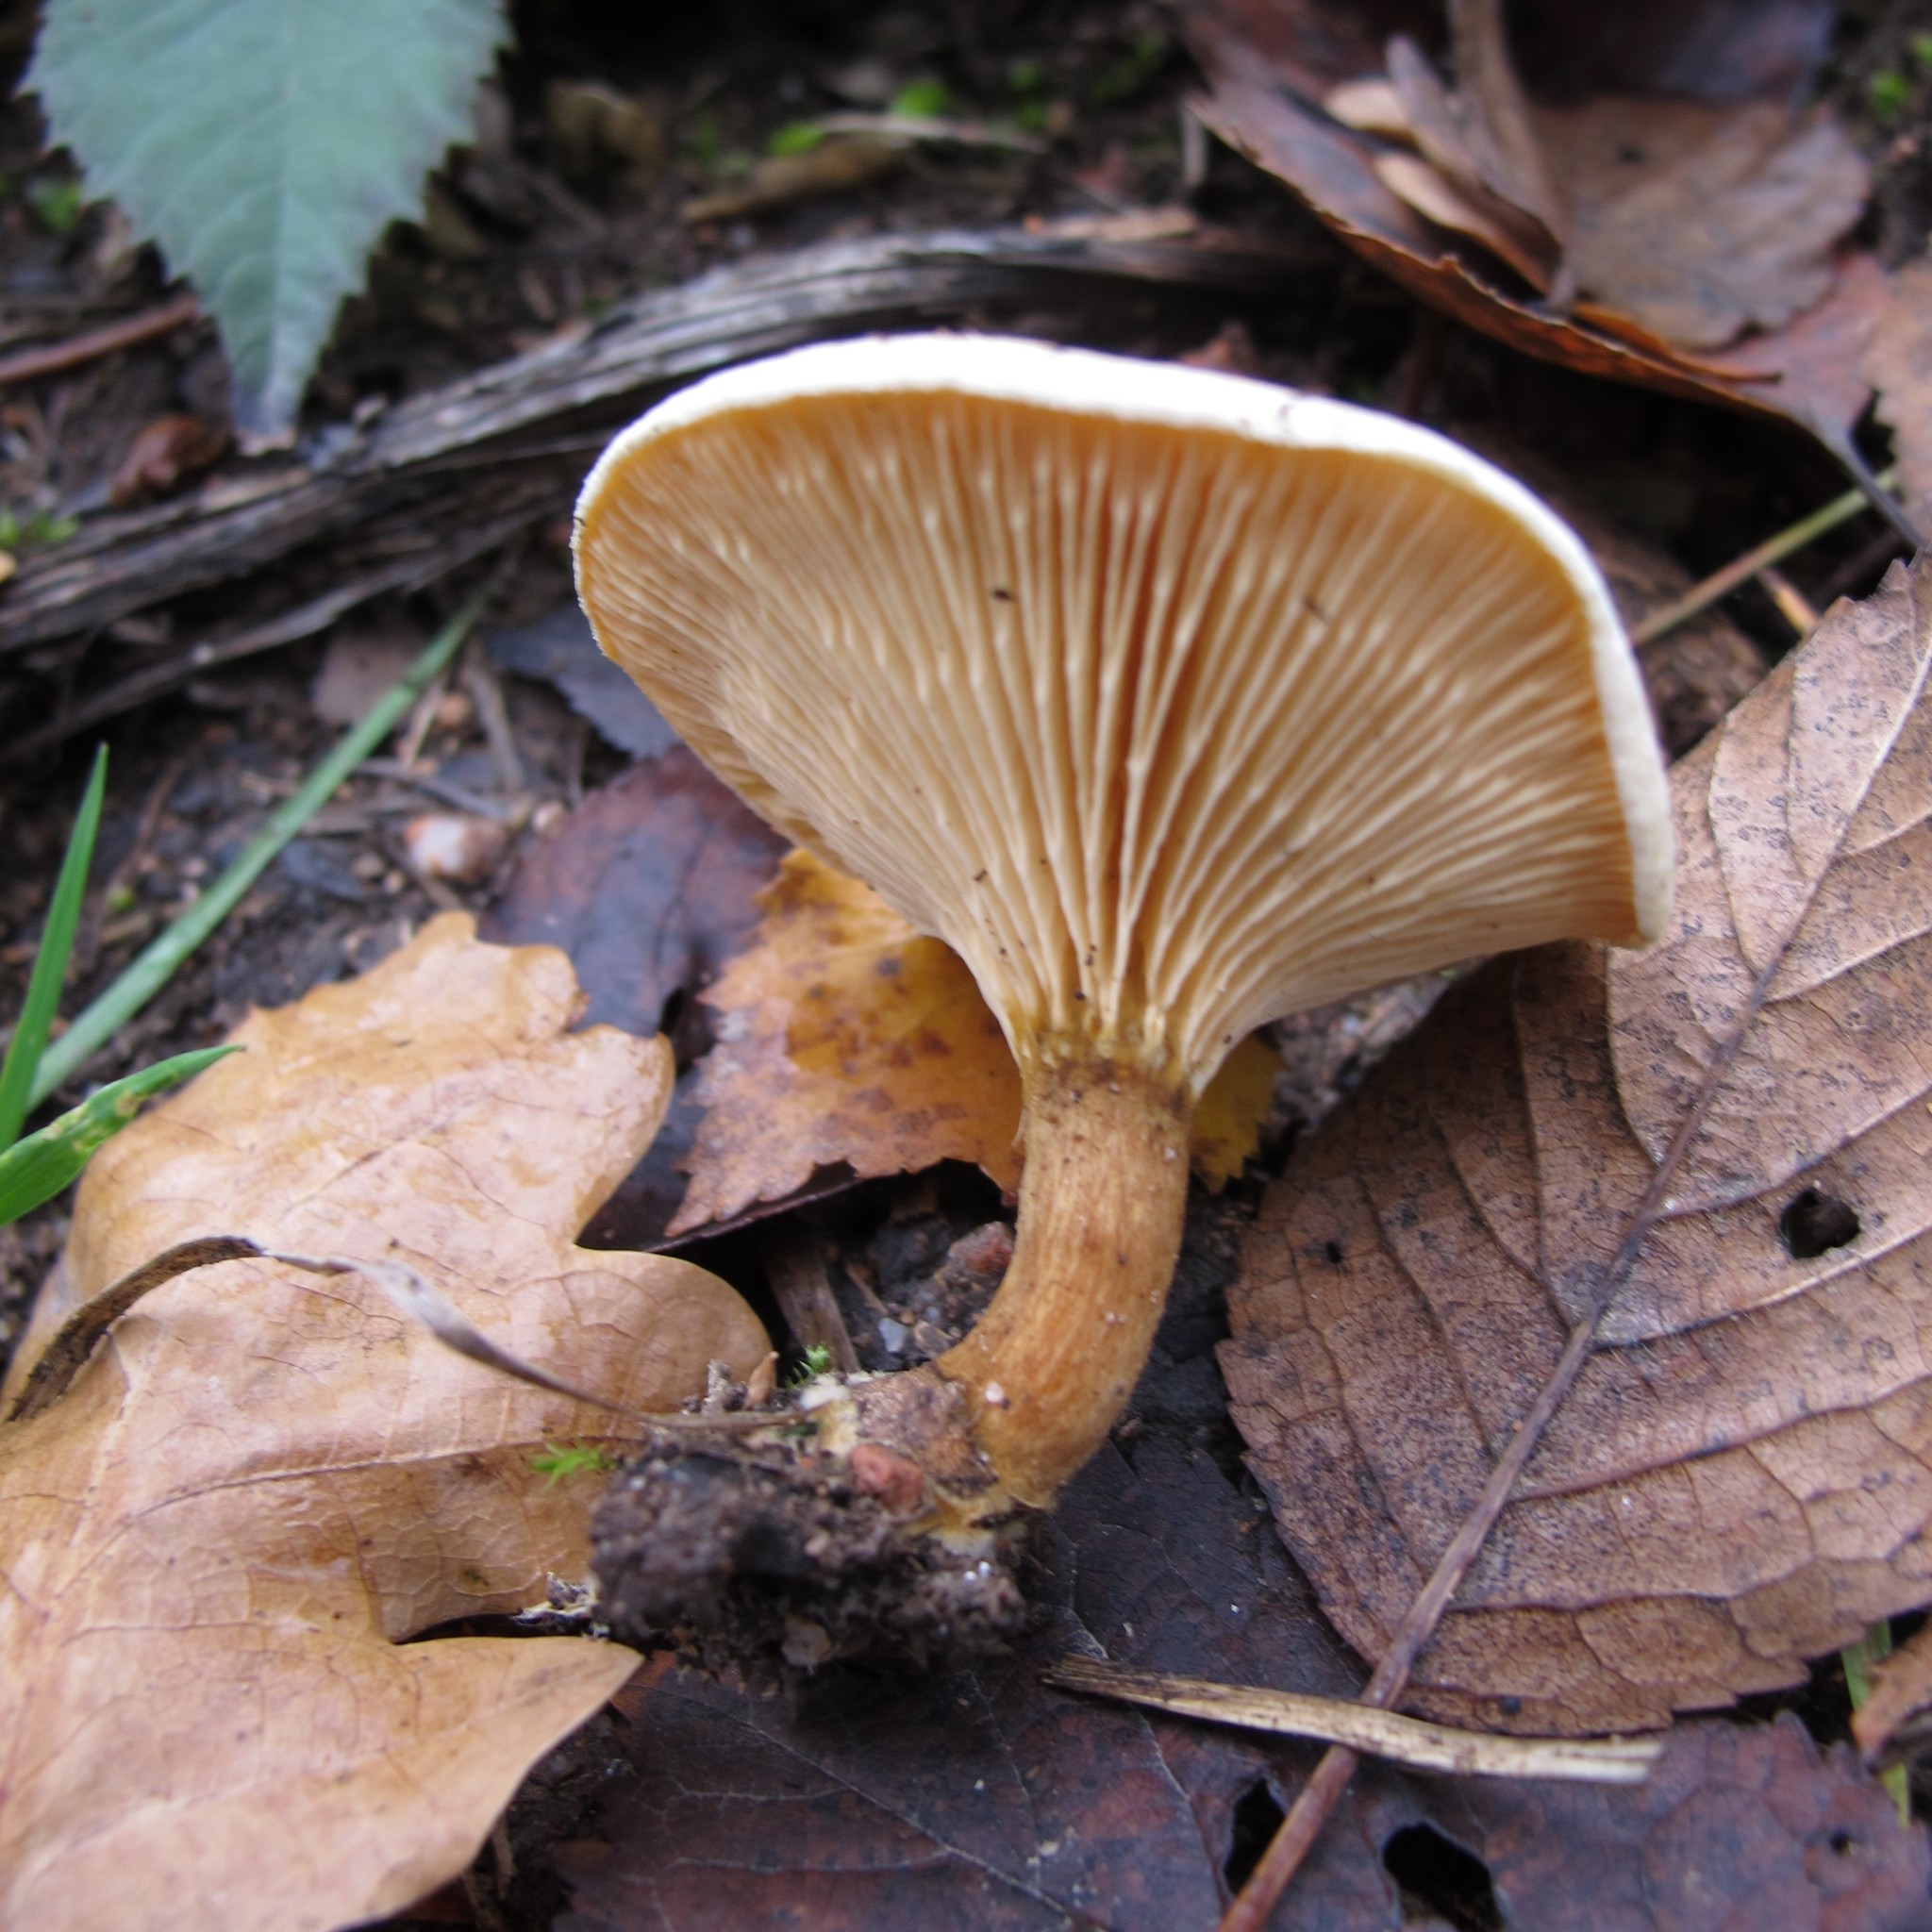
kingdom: Fungi
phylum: Basidiomycota
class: Agaricomycetes
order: Boletales
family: Hygrophoropsidaceae
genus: Hygrophoropsis
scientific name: Hygrophoropsis aurantiaca
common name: False chanterelle
